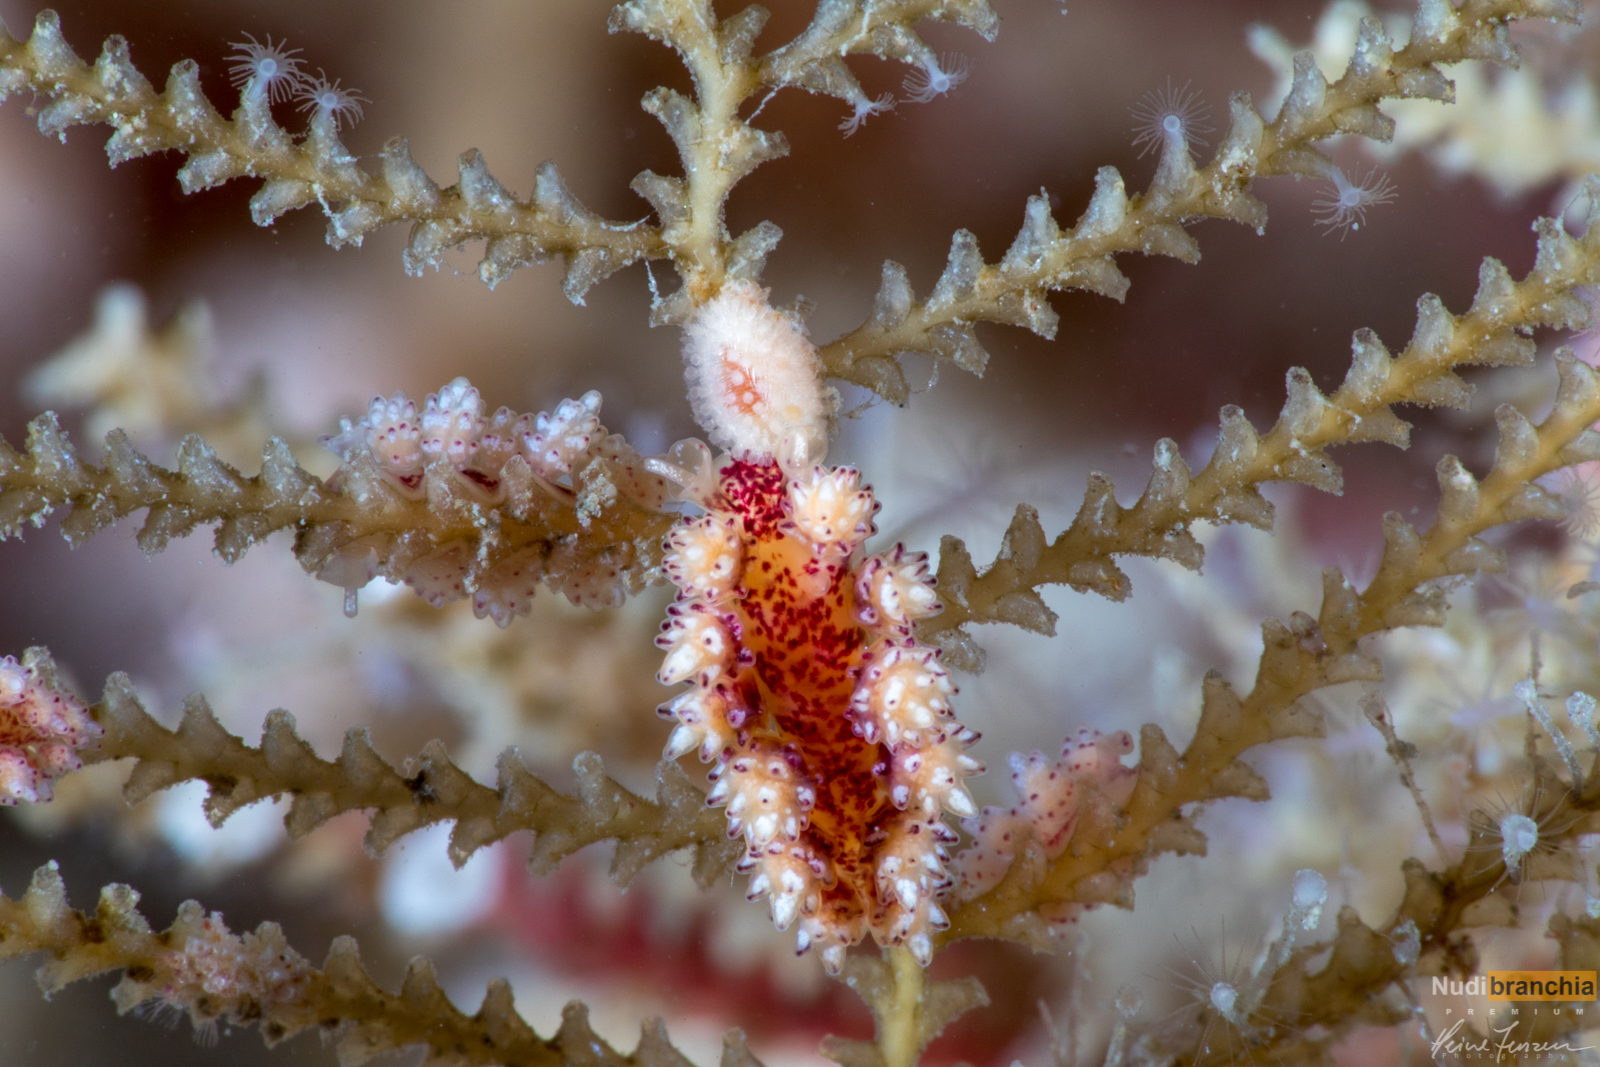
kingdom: Animalia
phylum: Mollusca
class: Gastropoda
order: Nudibranchia
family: Dotidae
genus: Doto
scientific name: Doto coronata
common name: Coronate doto
